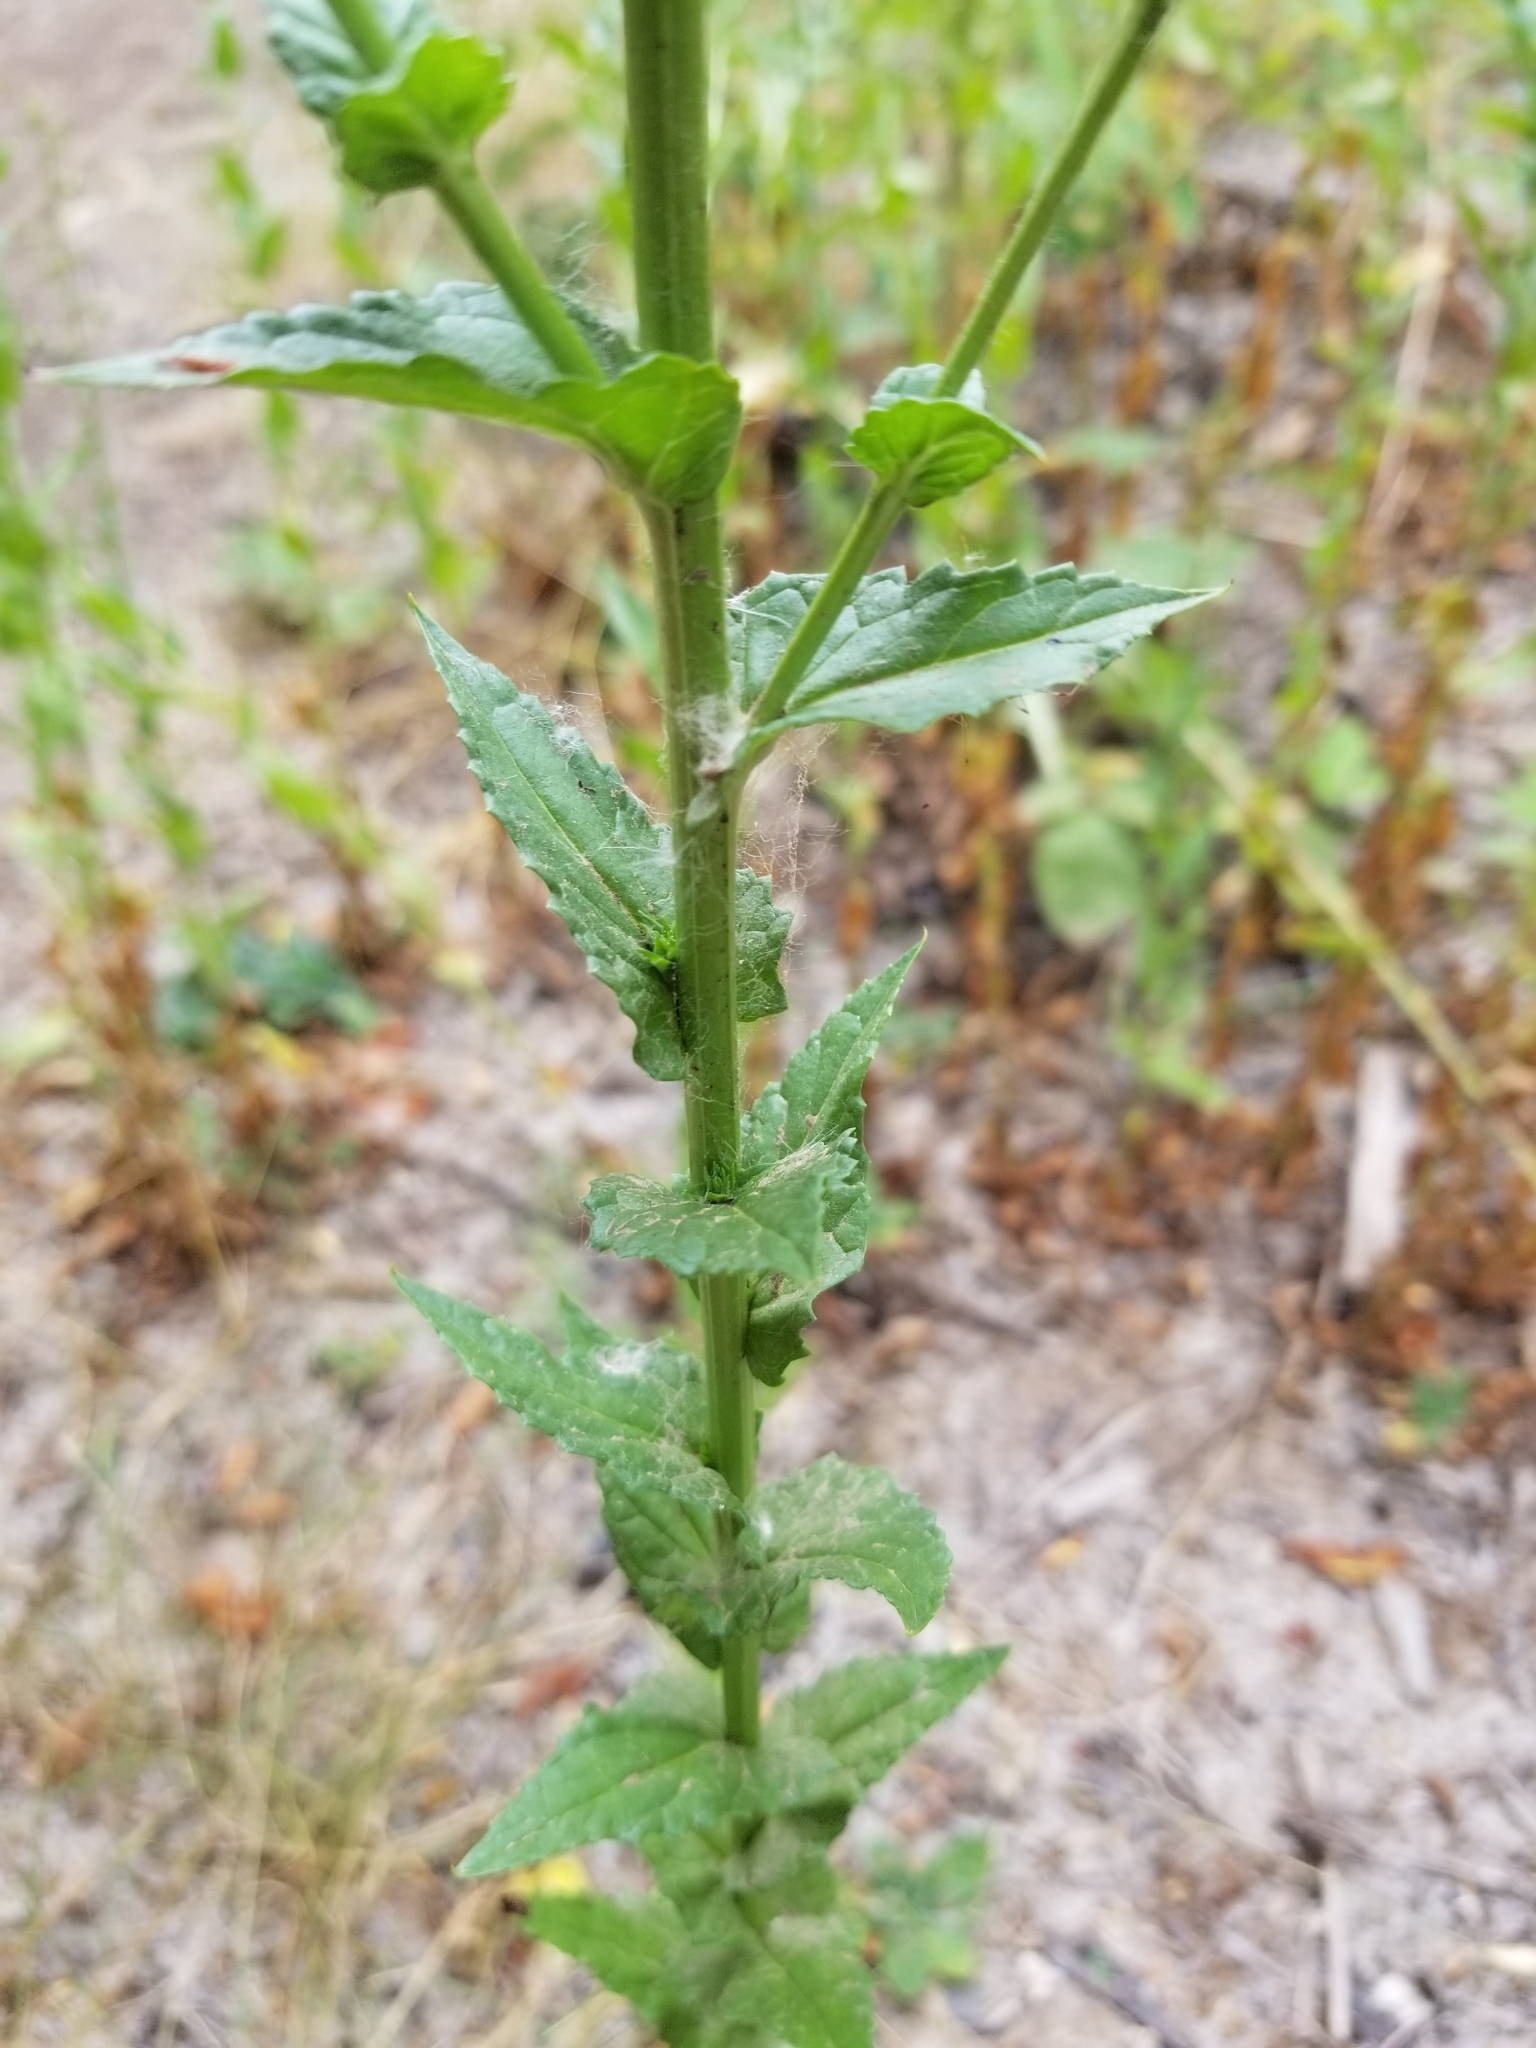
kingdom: Plantae
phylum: Tracheophyta
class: Magnoliopsida
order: Lamiales
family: Scrophulariaceae
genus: Verbascum
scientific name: Verbascum blattaria
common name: Moth mullein
